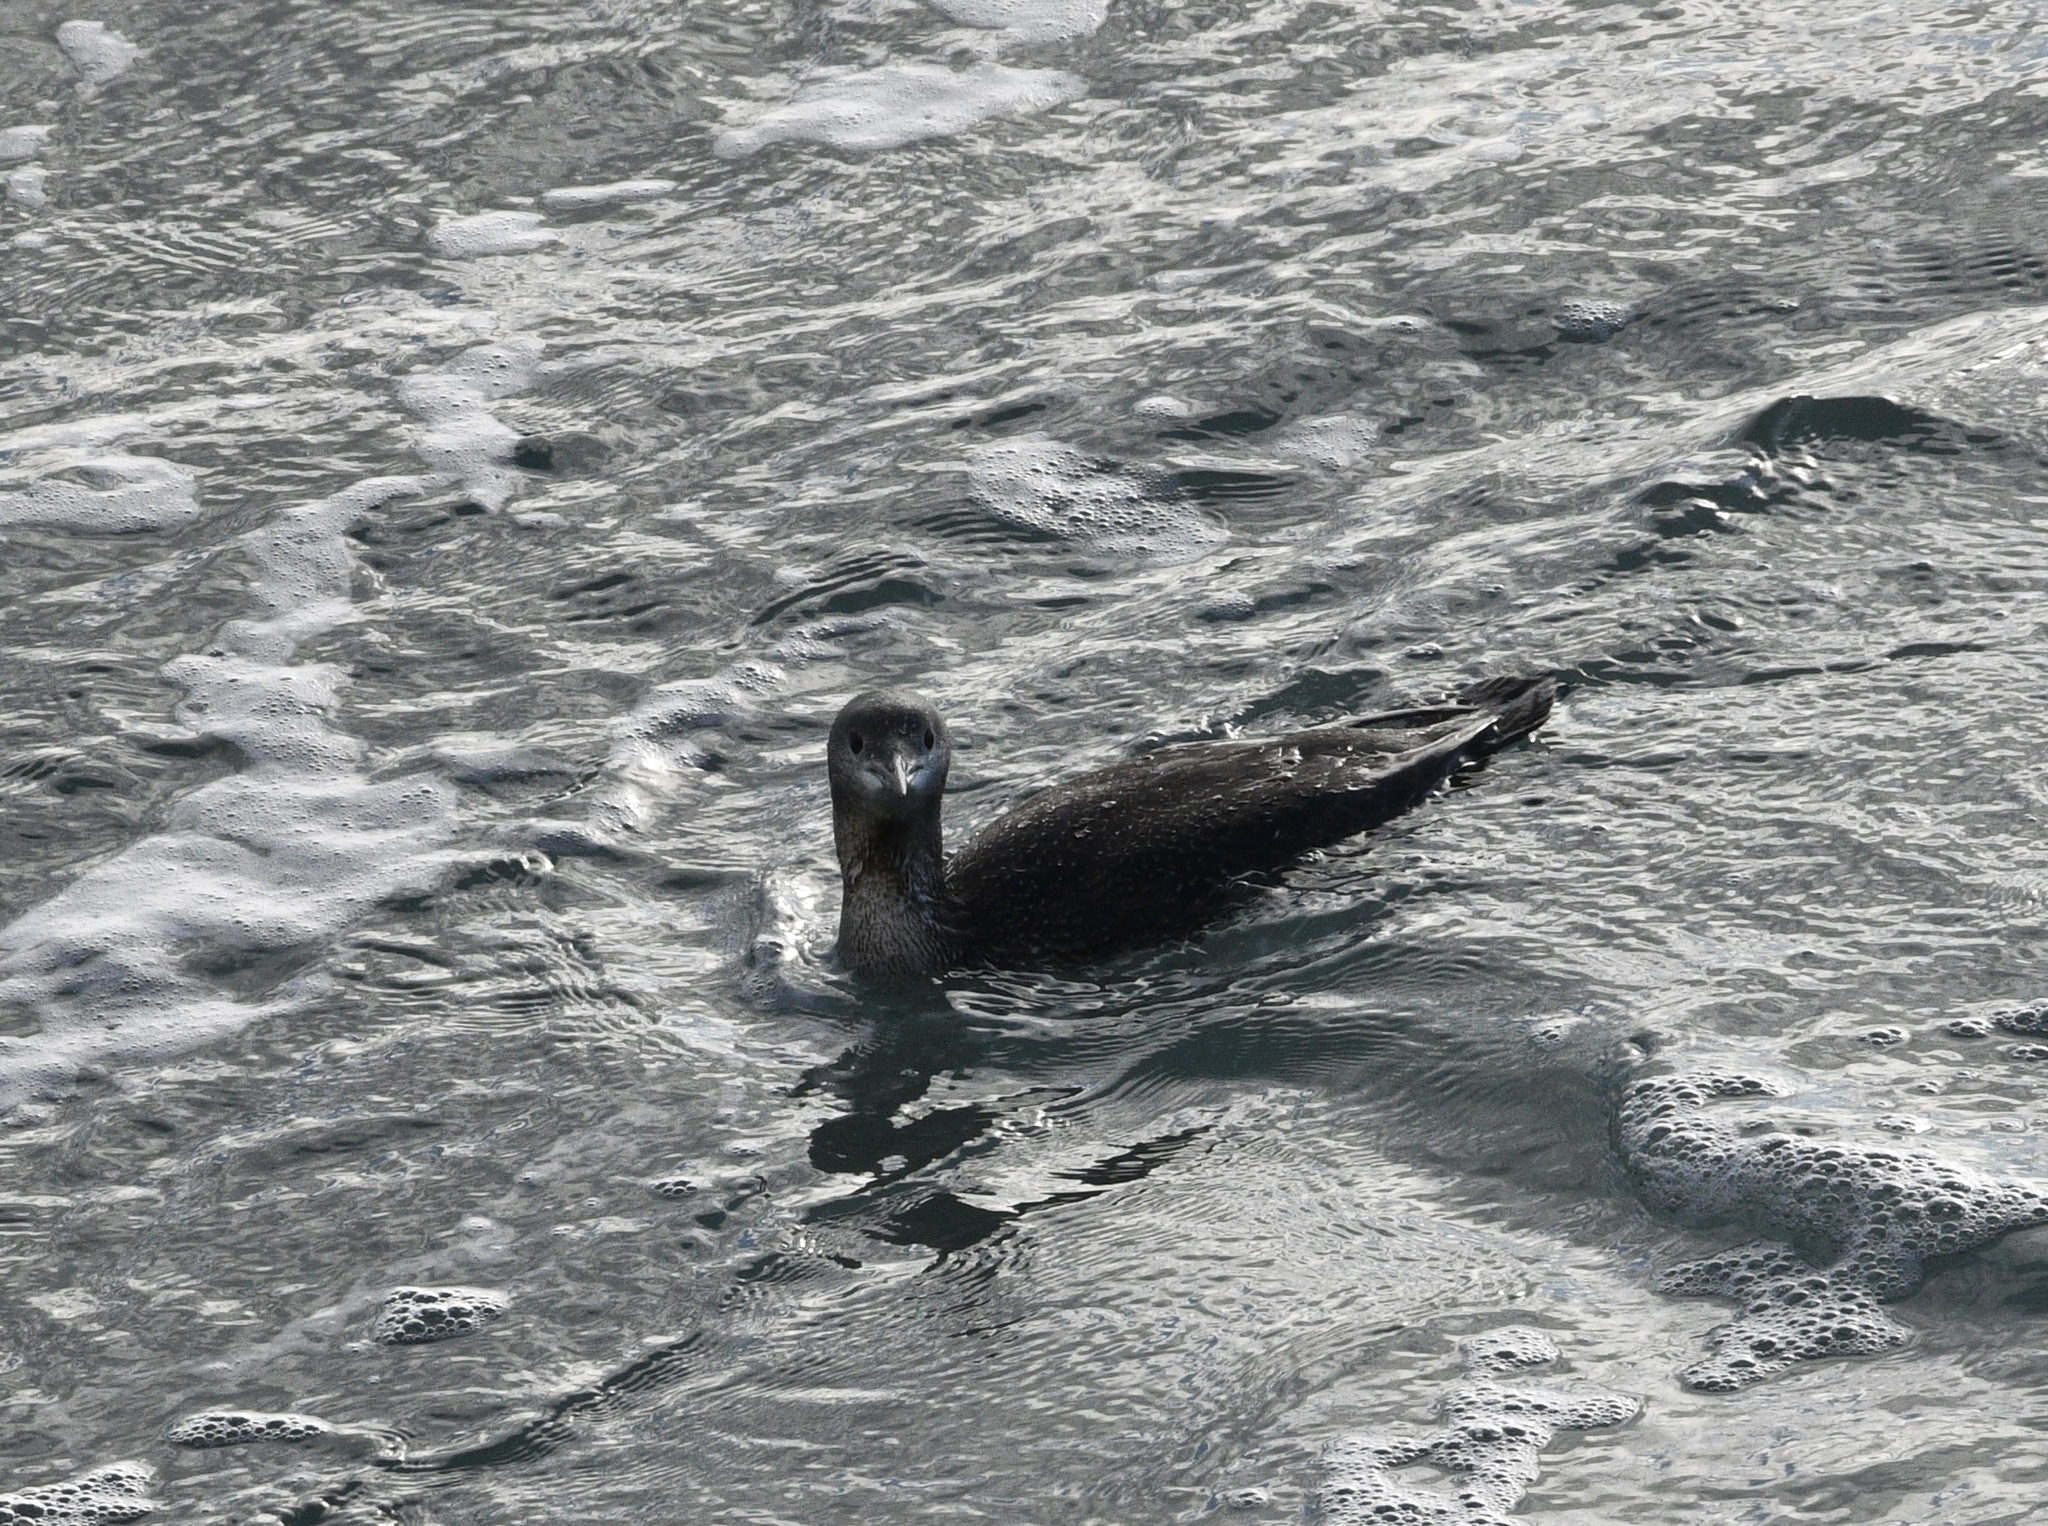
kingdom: Animalia
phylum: Chordata
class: Aves
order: Gaviiformes
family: Gaviidae
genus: Gavia
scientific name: Gavia stellata
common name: Red-throated loon
